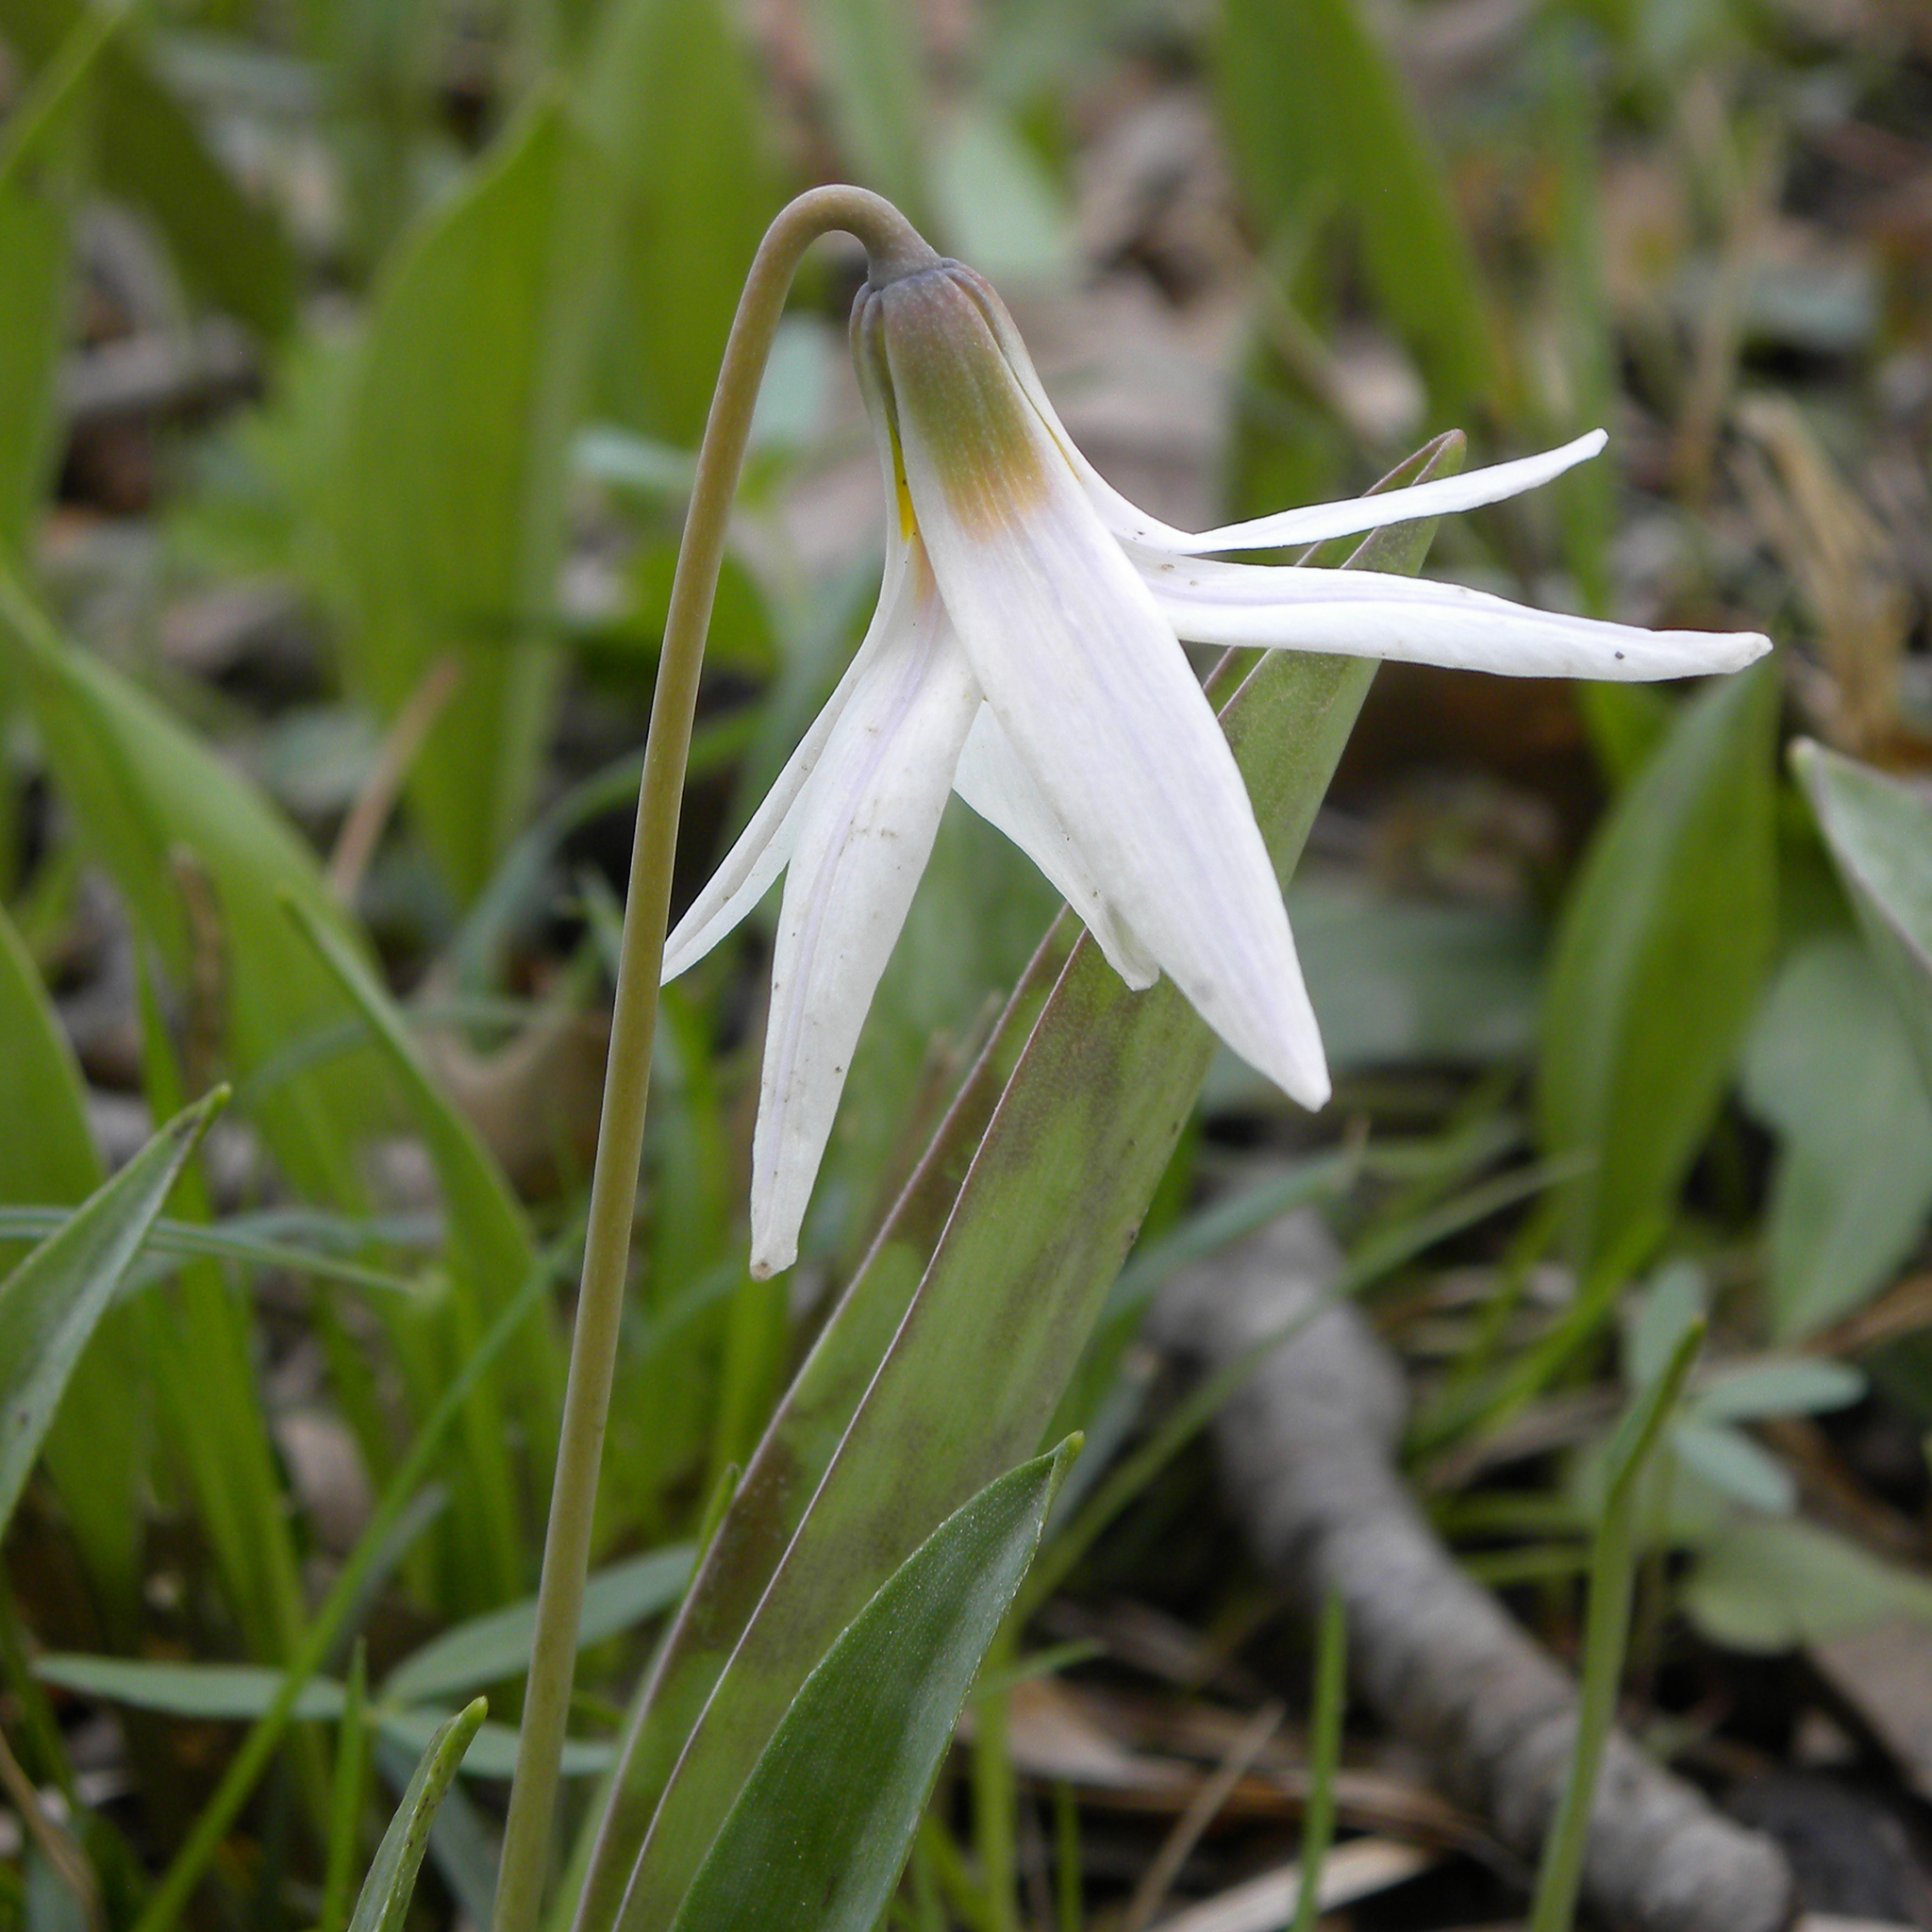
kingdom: Plantae
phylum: Tracheophyta
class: Liliopsida
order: Liliales
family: Liliaceae
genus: Erythronium
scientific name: Erythronium albidum
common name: White trout-lily
